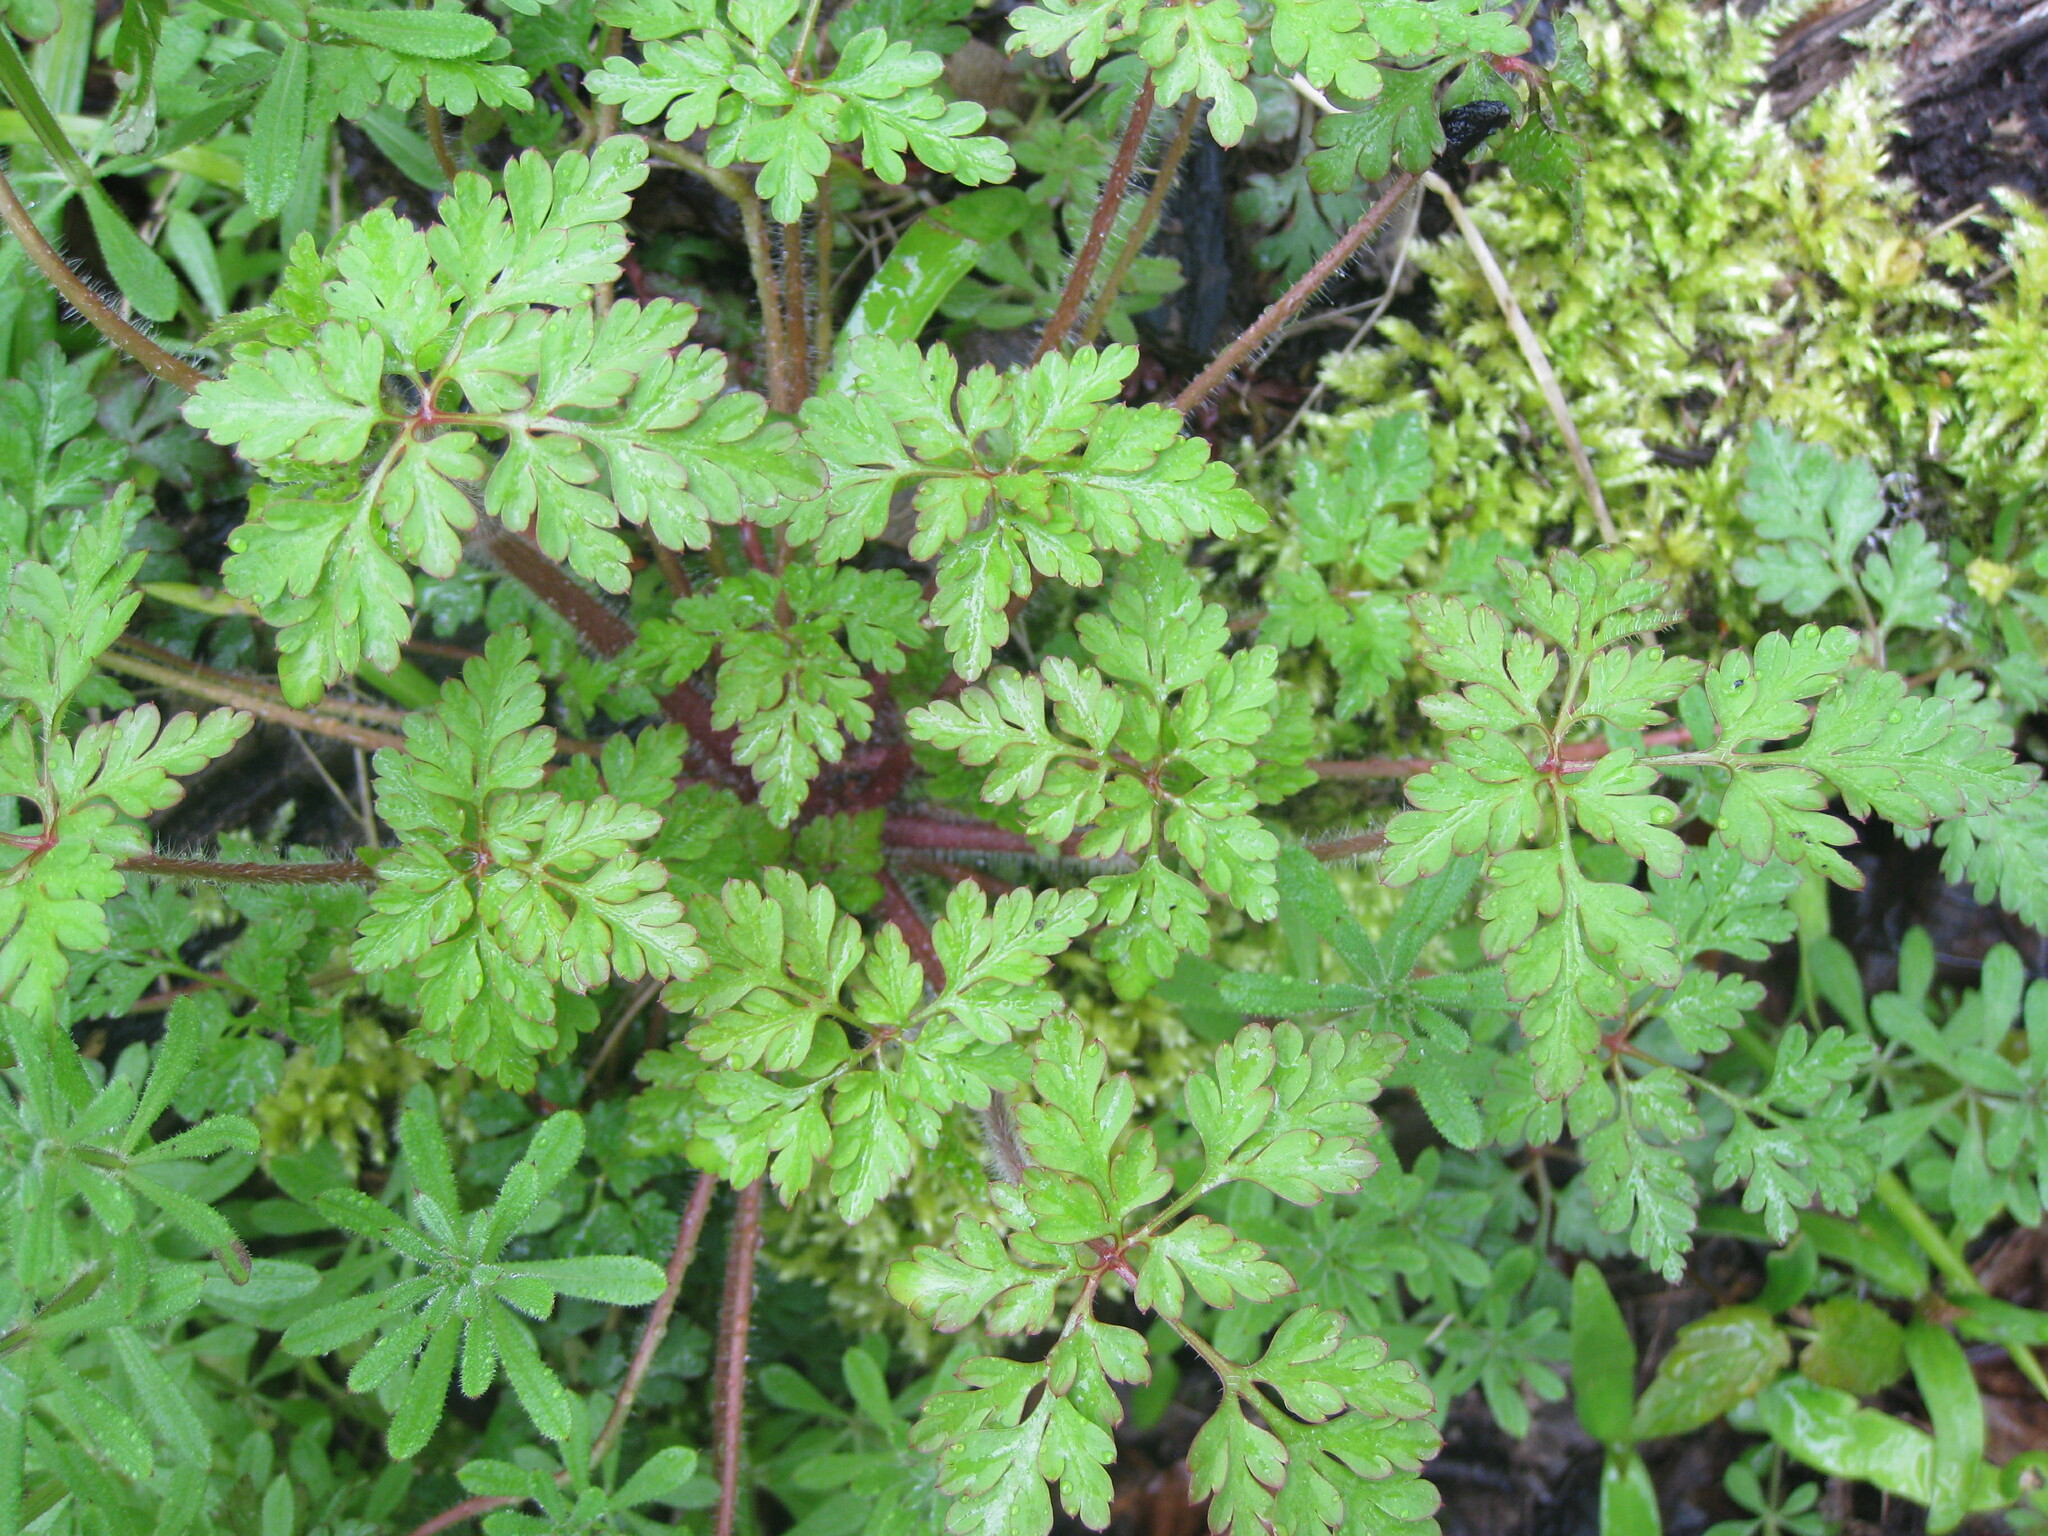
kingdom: Plantae
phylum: Tracheophyta
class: Magnoliopsida
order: Geraniales
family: Geraniaceae
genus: Geranium
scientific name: Geranium robertianum
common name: Herb-robert
